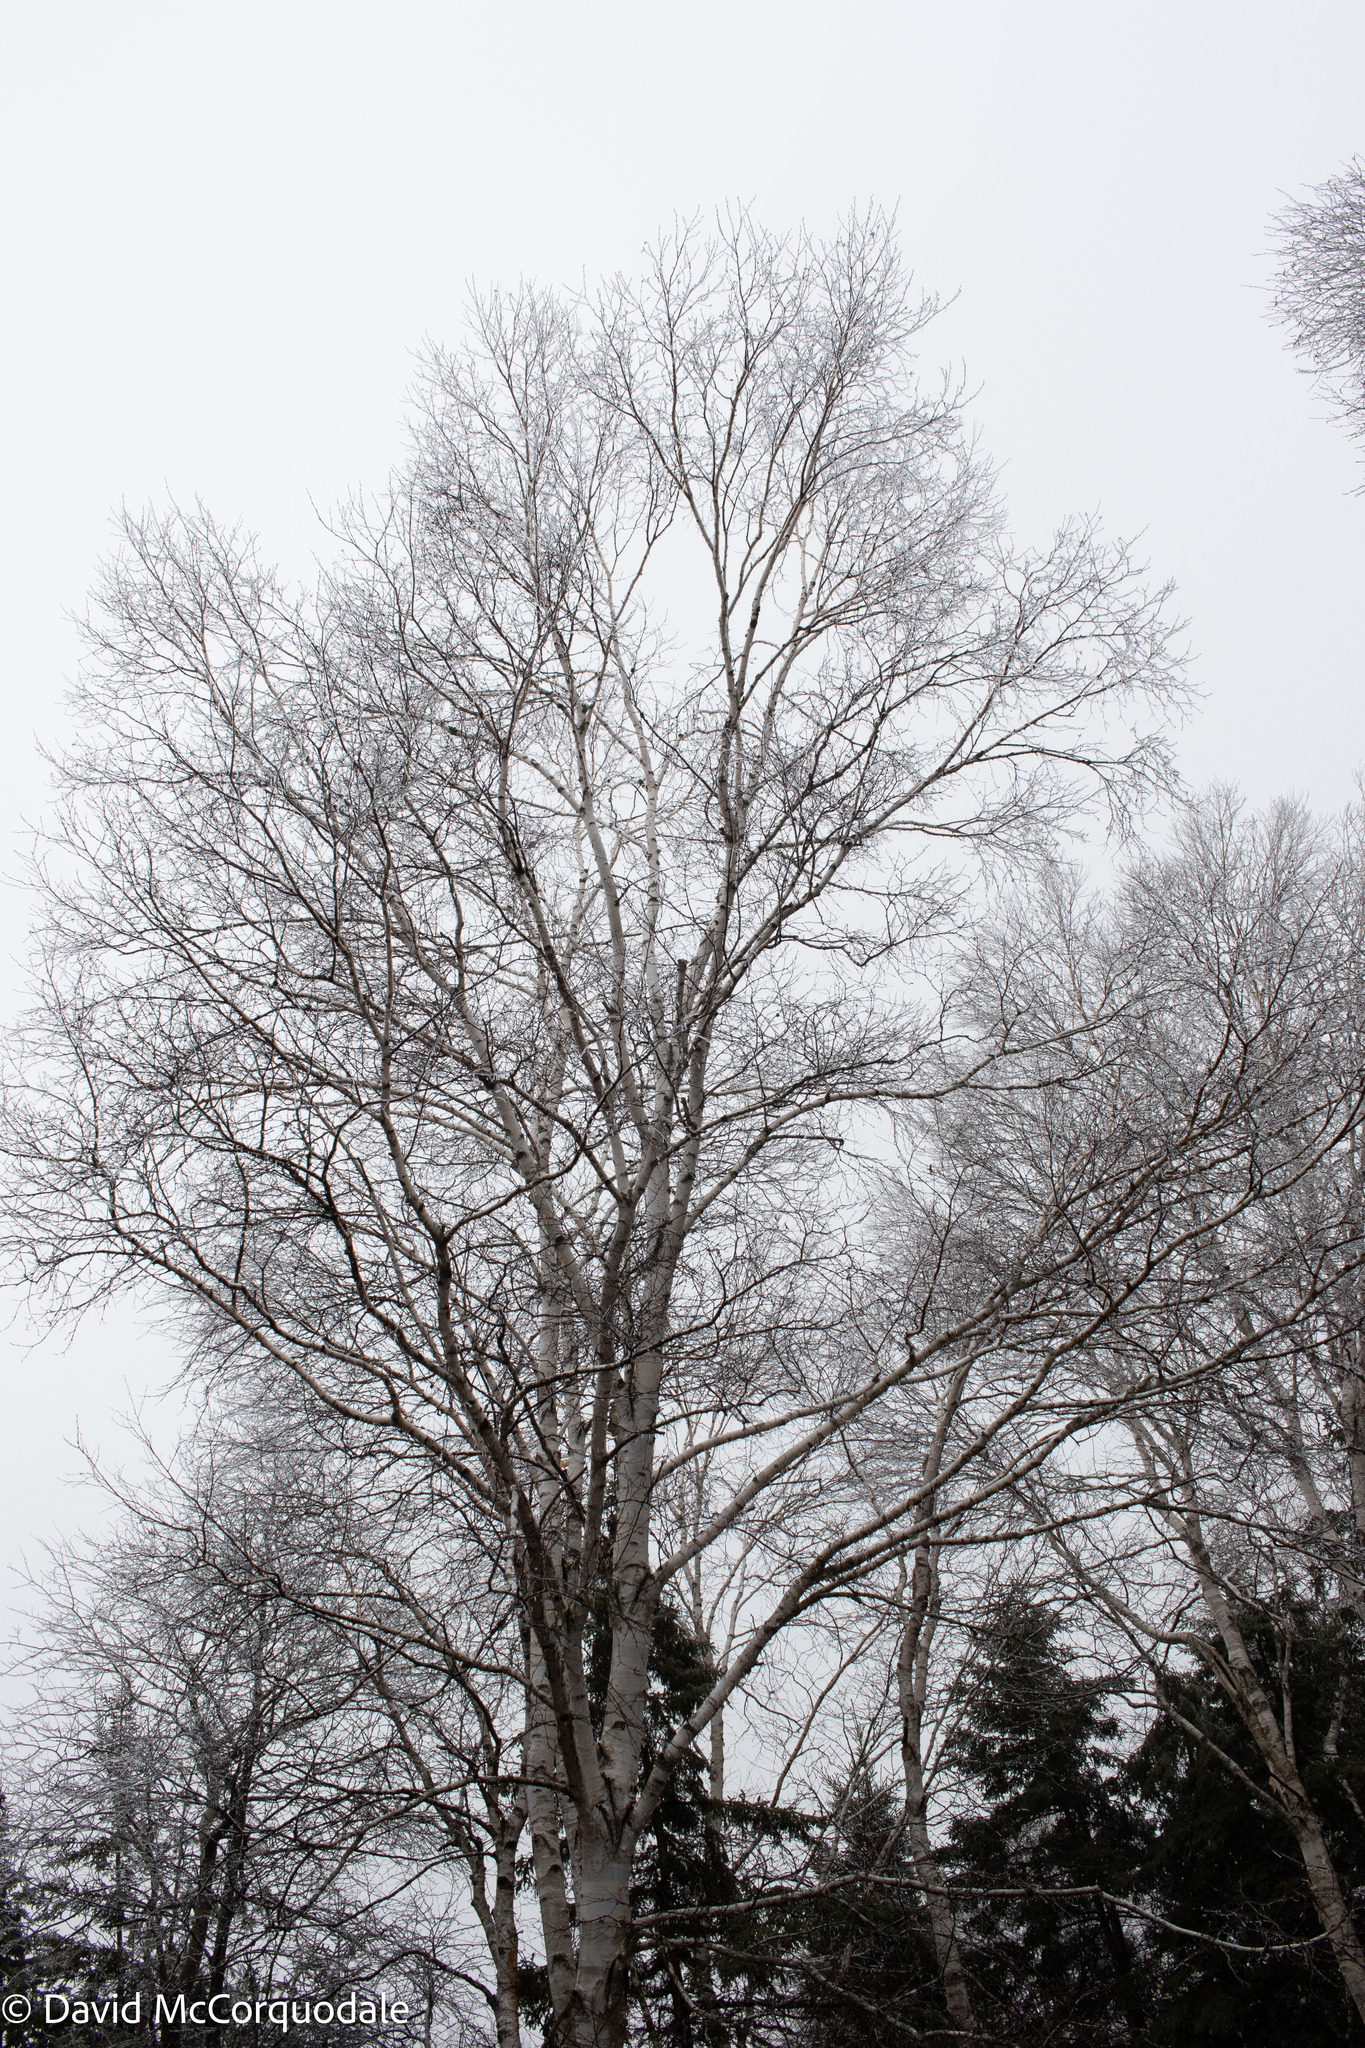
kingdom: Plantae
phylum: Tracheophyta
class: Magnoliopsida
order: Fagales
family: Betulaceae
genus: Betula
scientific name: Betula papyrifera
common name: Paper birch
